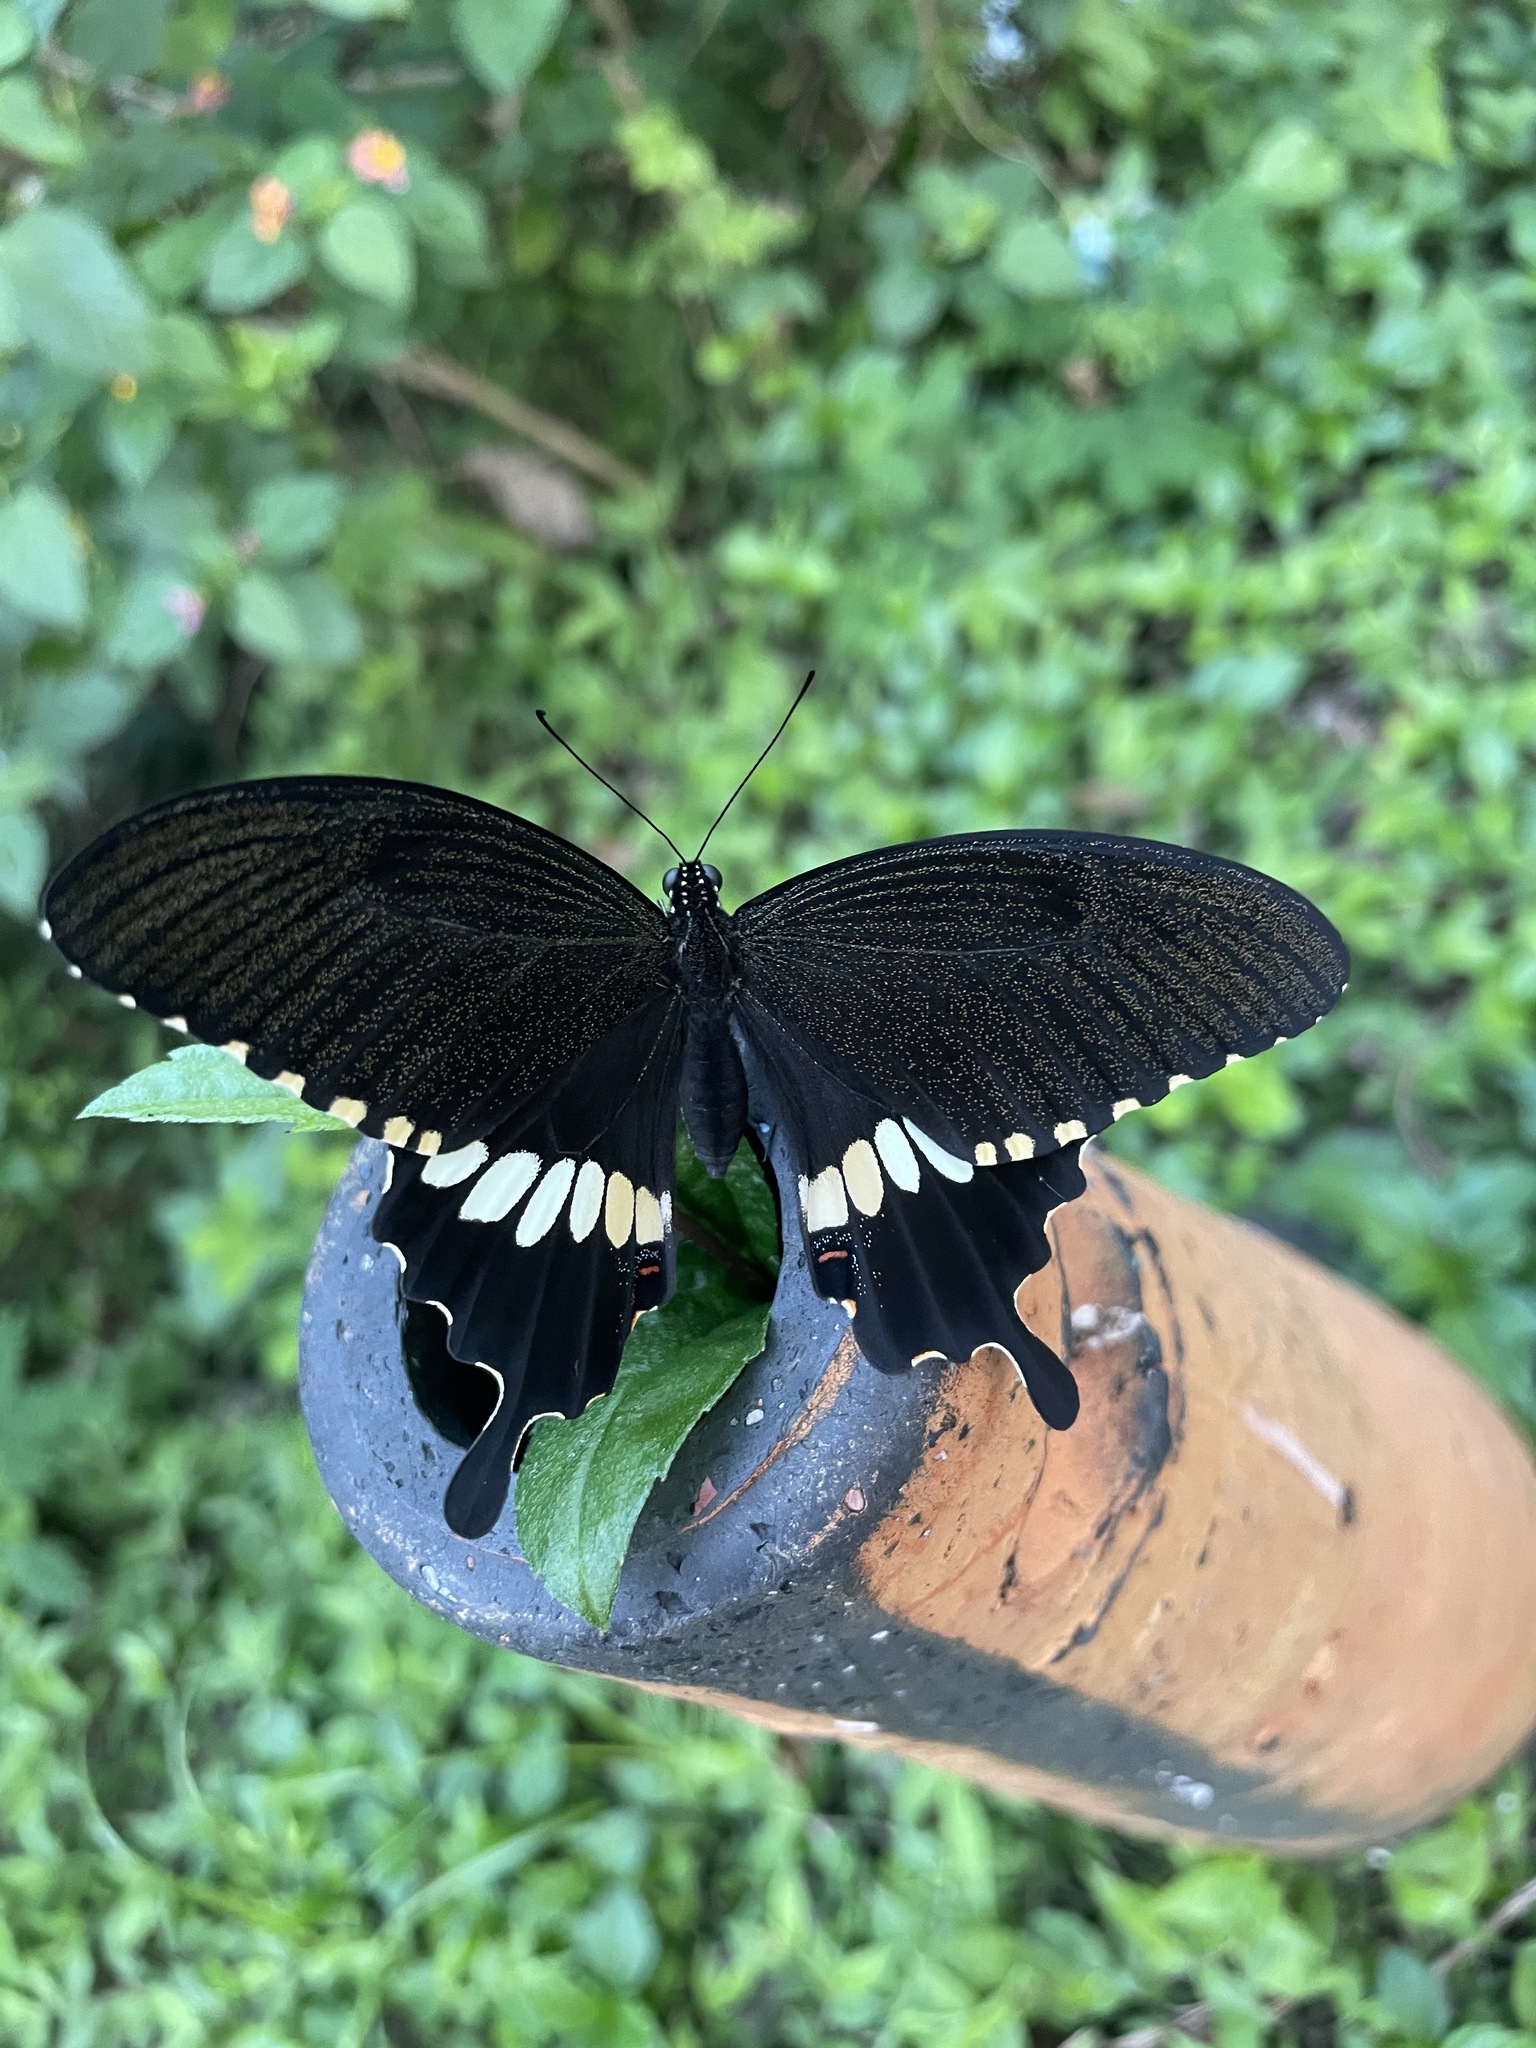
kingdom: Animalia
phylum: Arthropoda
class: Insecta
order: Lepidoptera
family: Papilionidae
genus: Papilio
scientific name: Papilio polytes
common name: Common mormon
